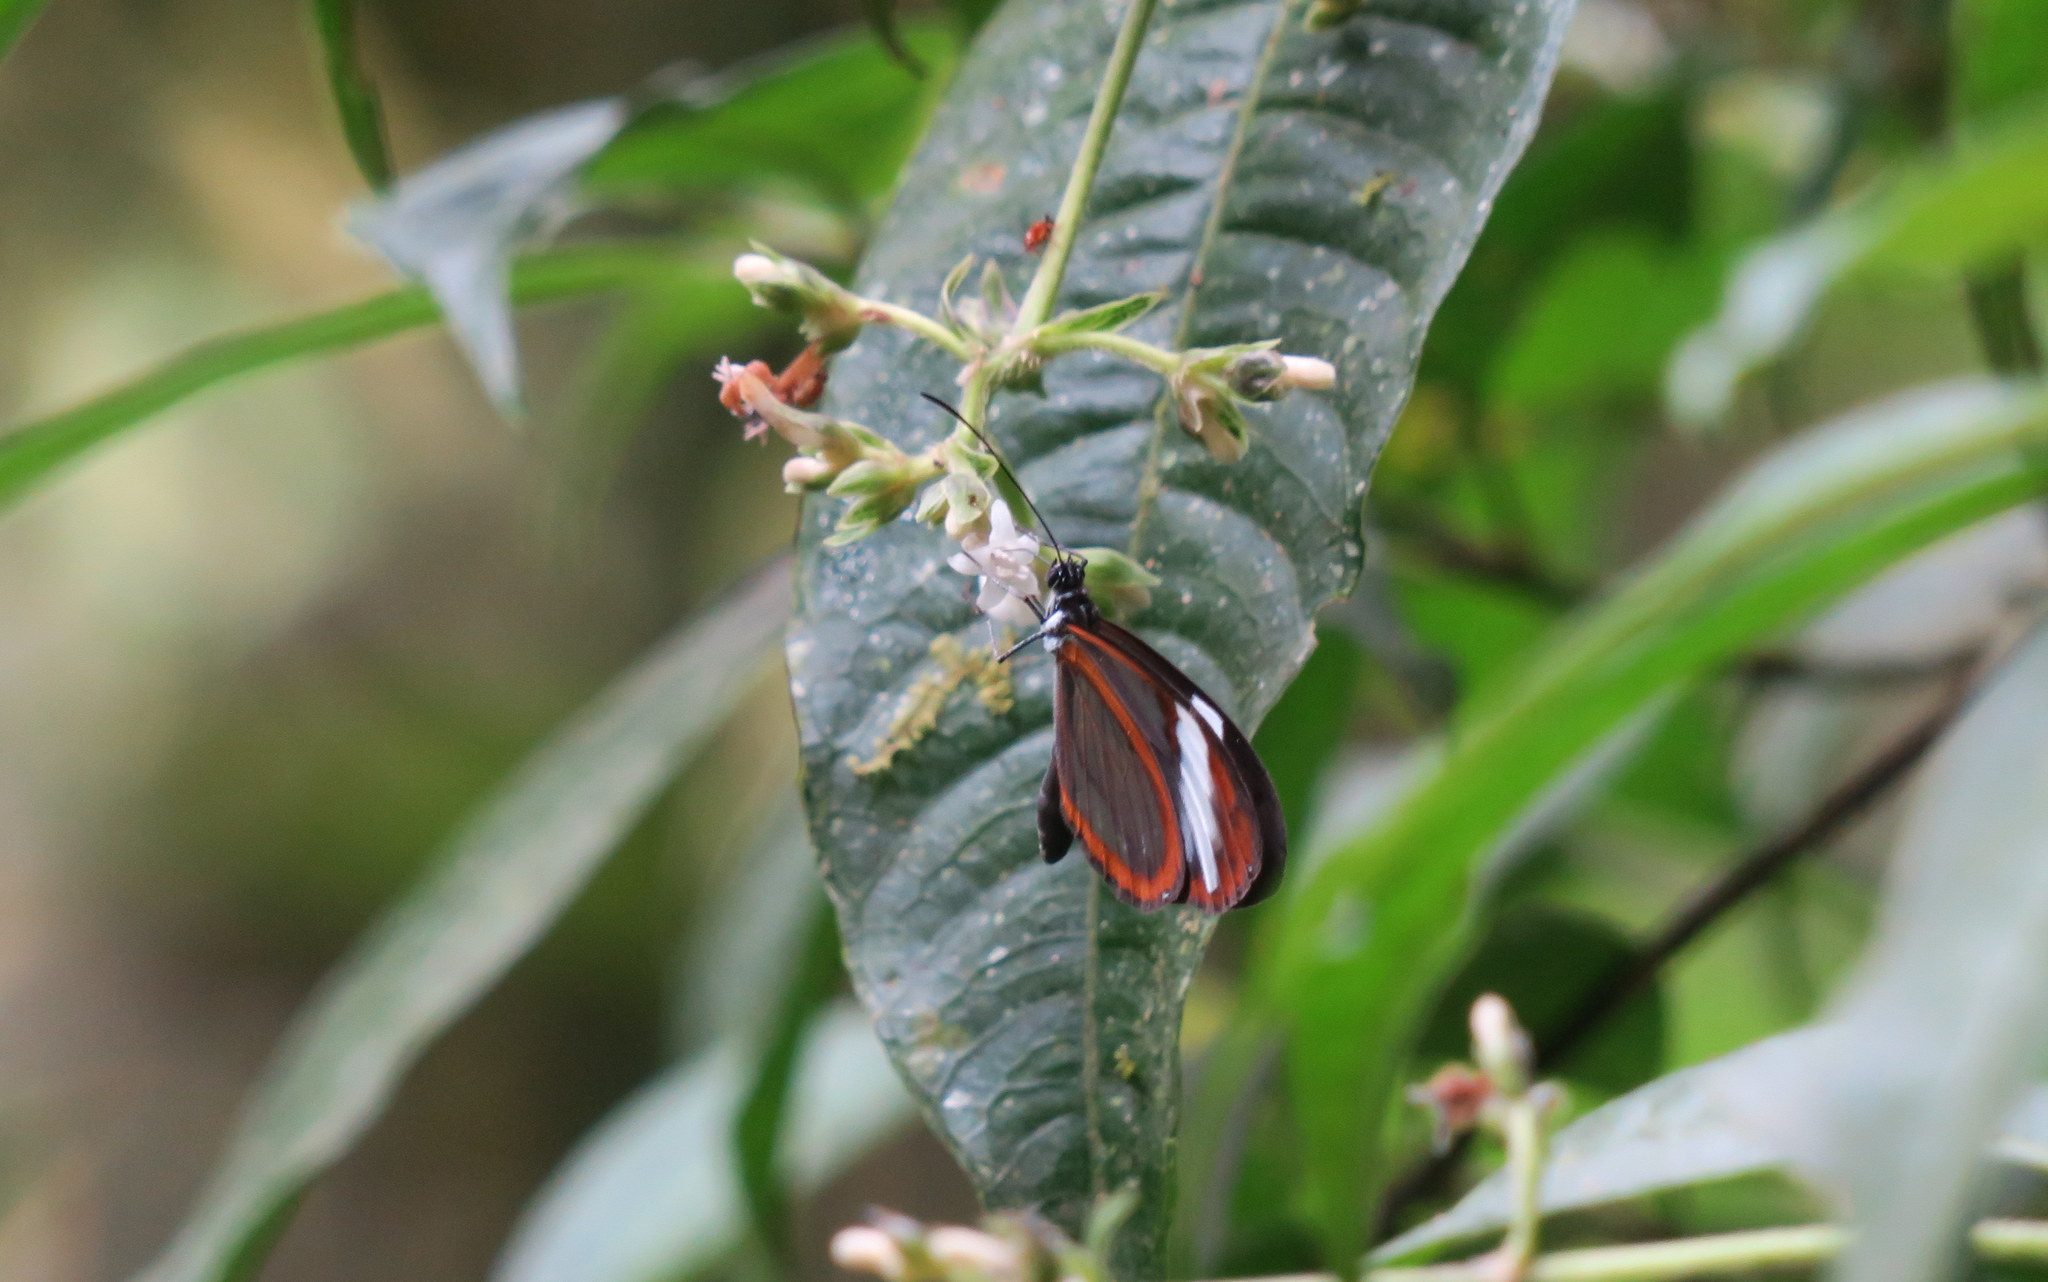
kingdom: Animalia
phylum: Arthropoda
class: Insecta
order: Lepidoptera
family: Nymphalidae
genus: Oleria
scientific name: Oleria padilla
